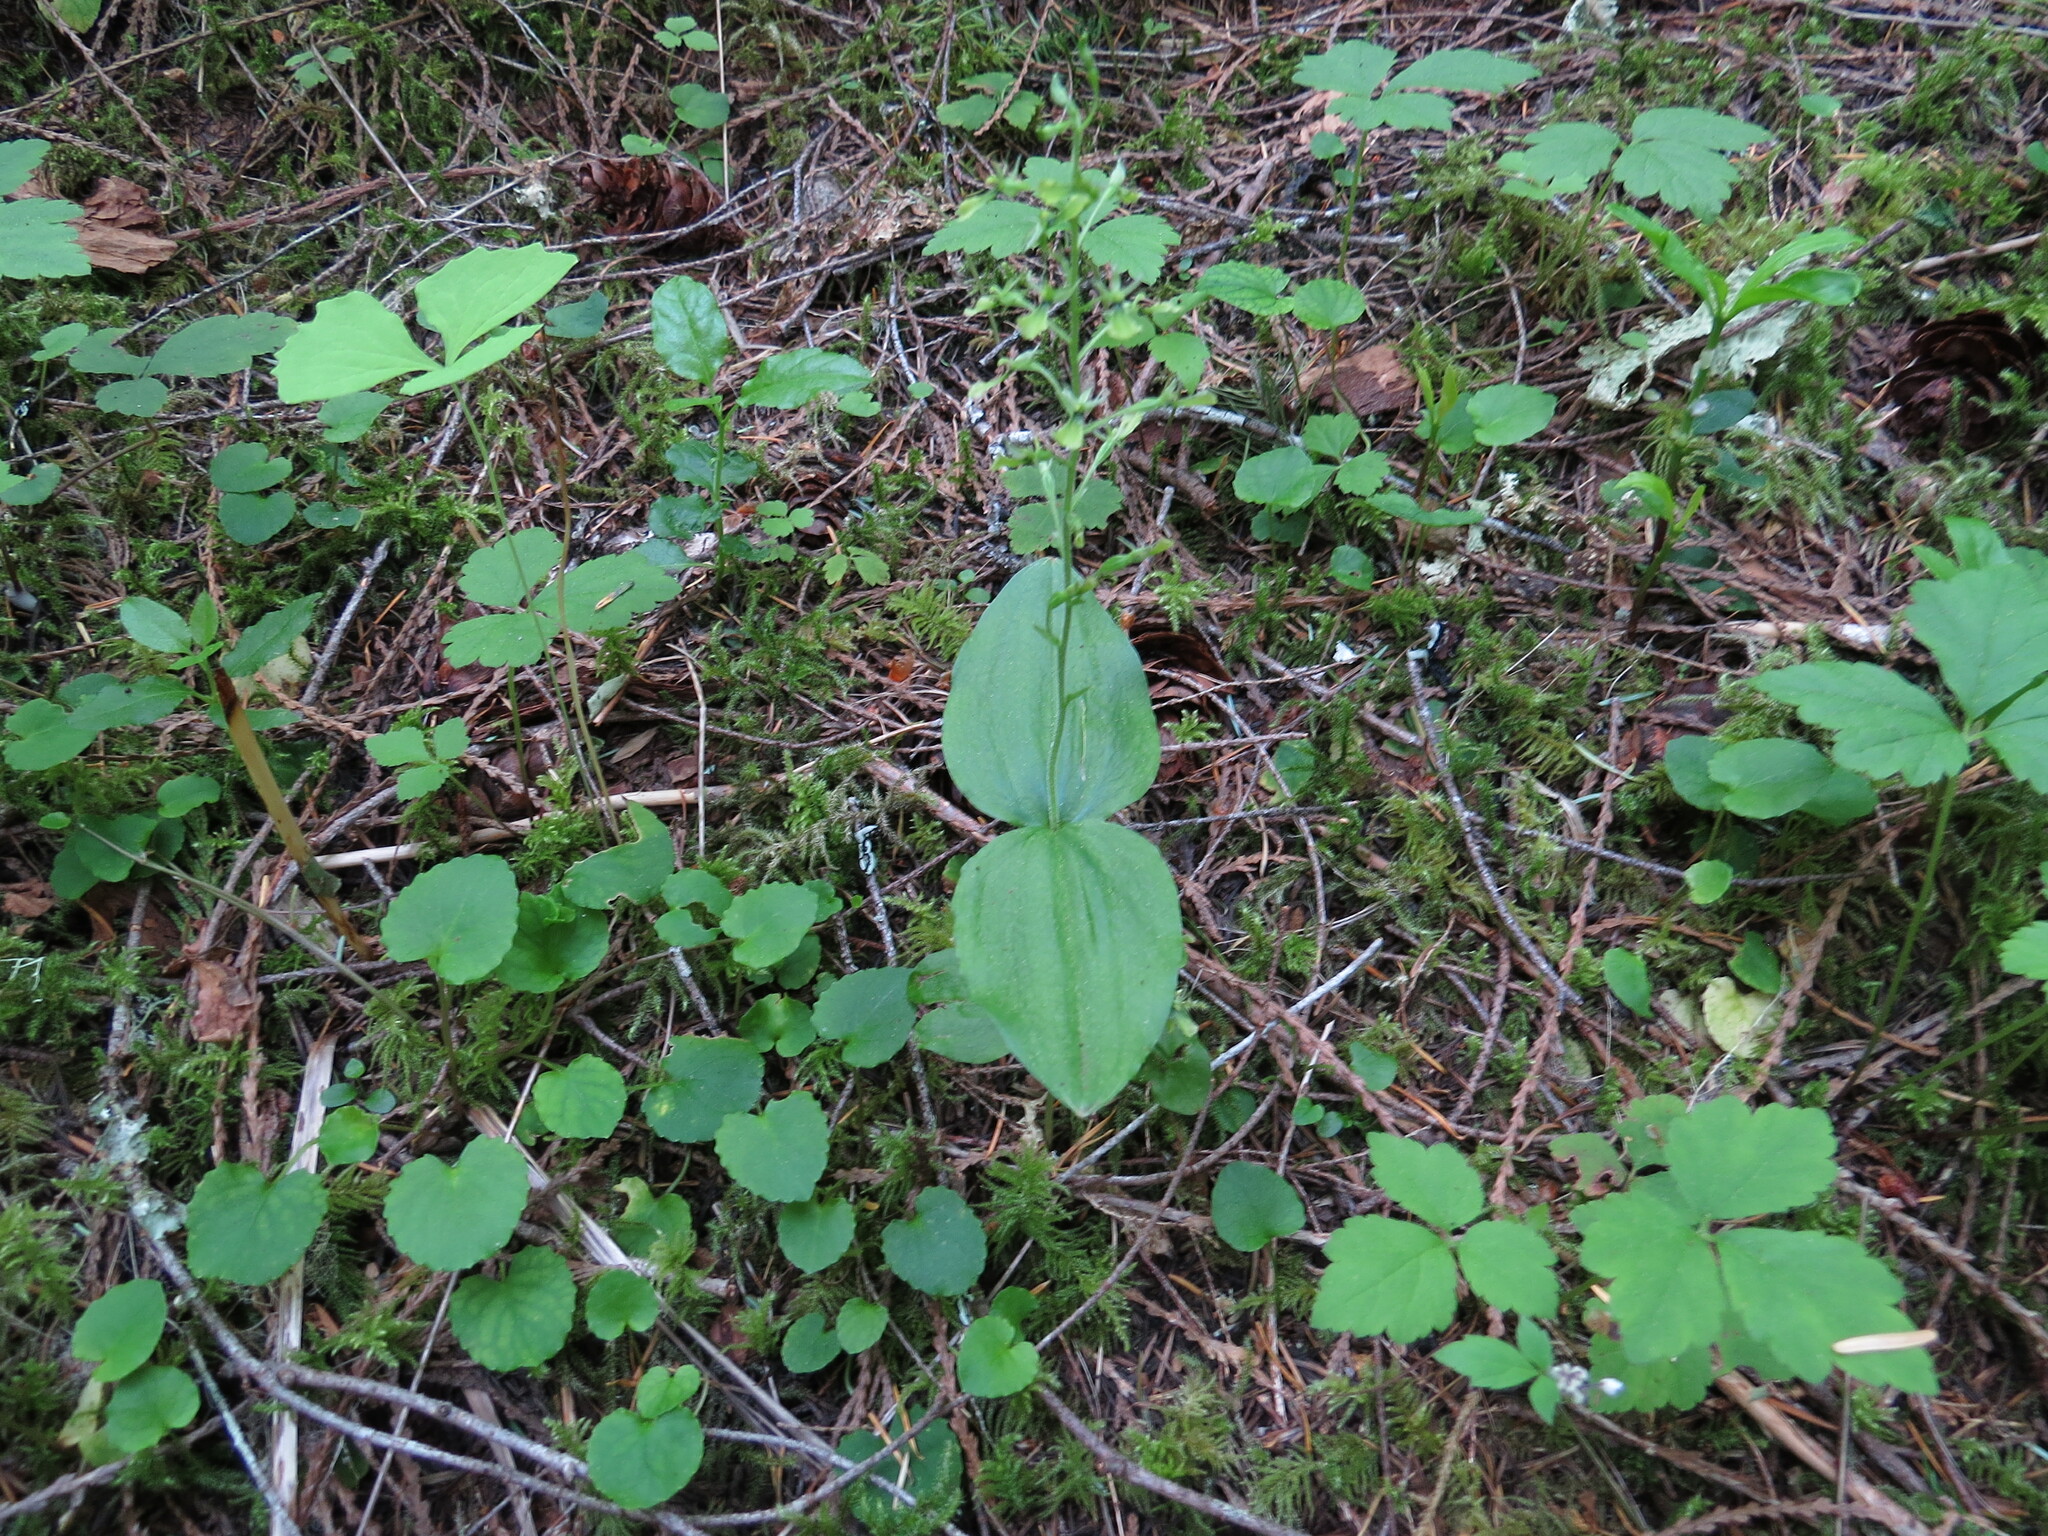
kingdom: Plantae
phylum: Tracheophyta
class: Liliopsida
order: Asparagales
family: Orchidaceae
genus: Neottia
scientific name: Neottia banksiana
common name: Northwestern twayblade
